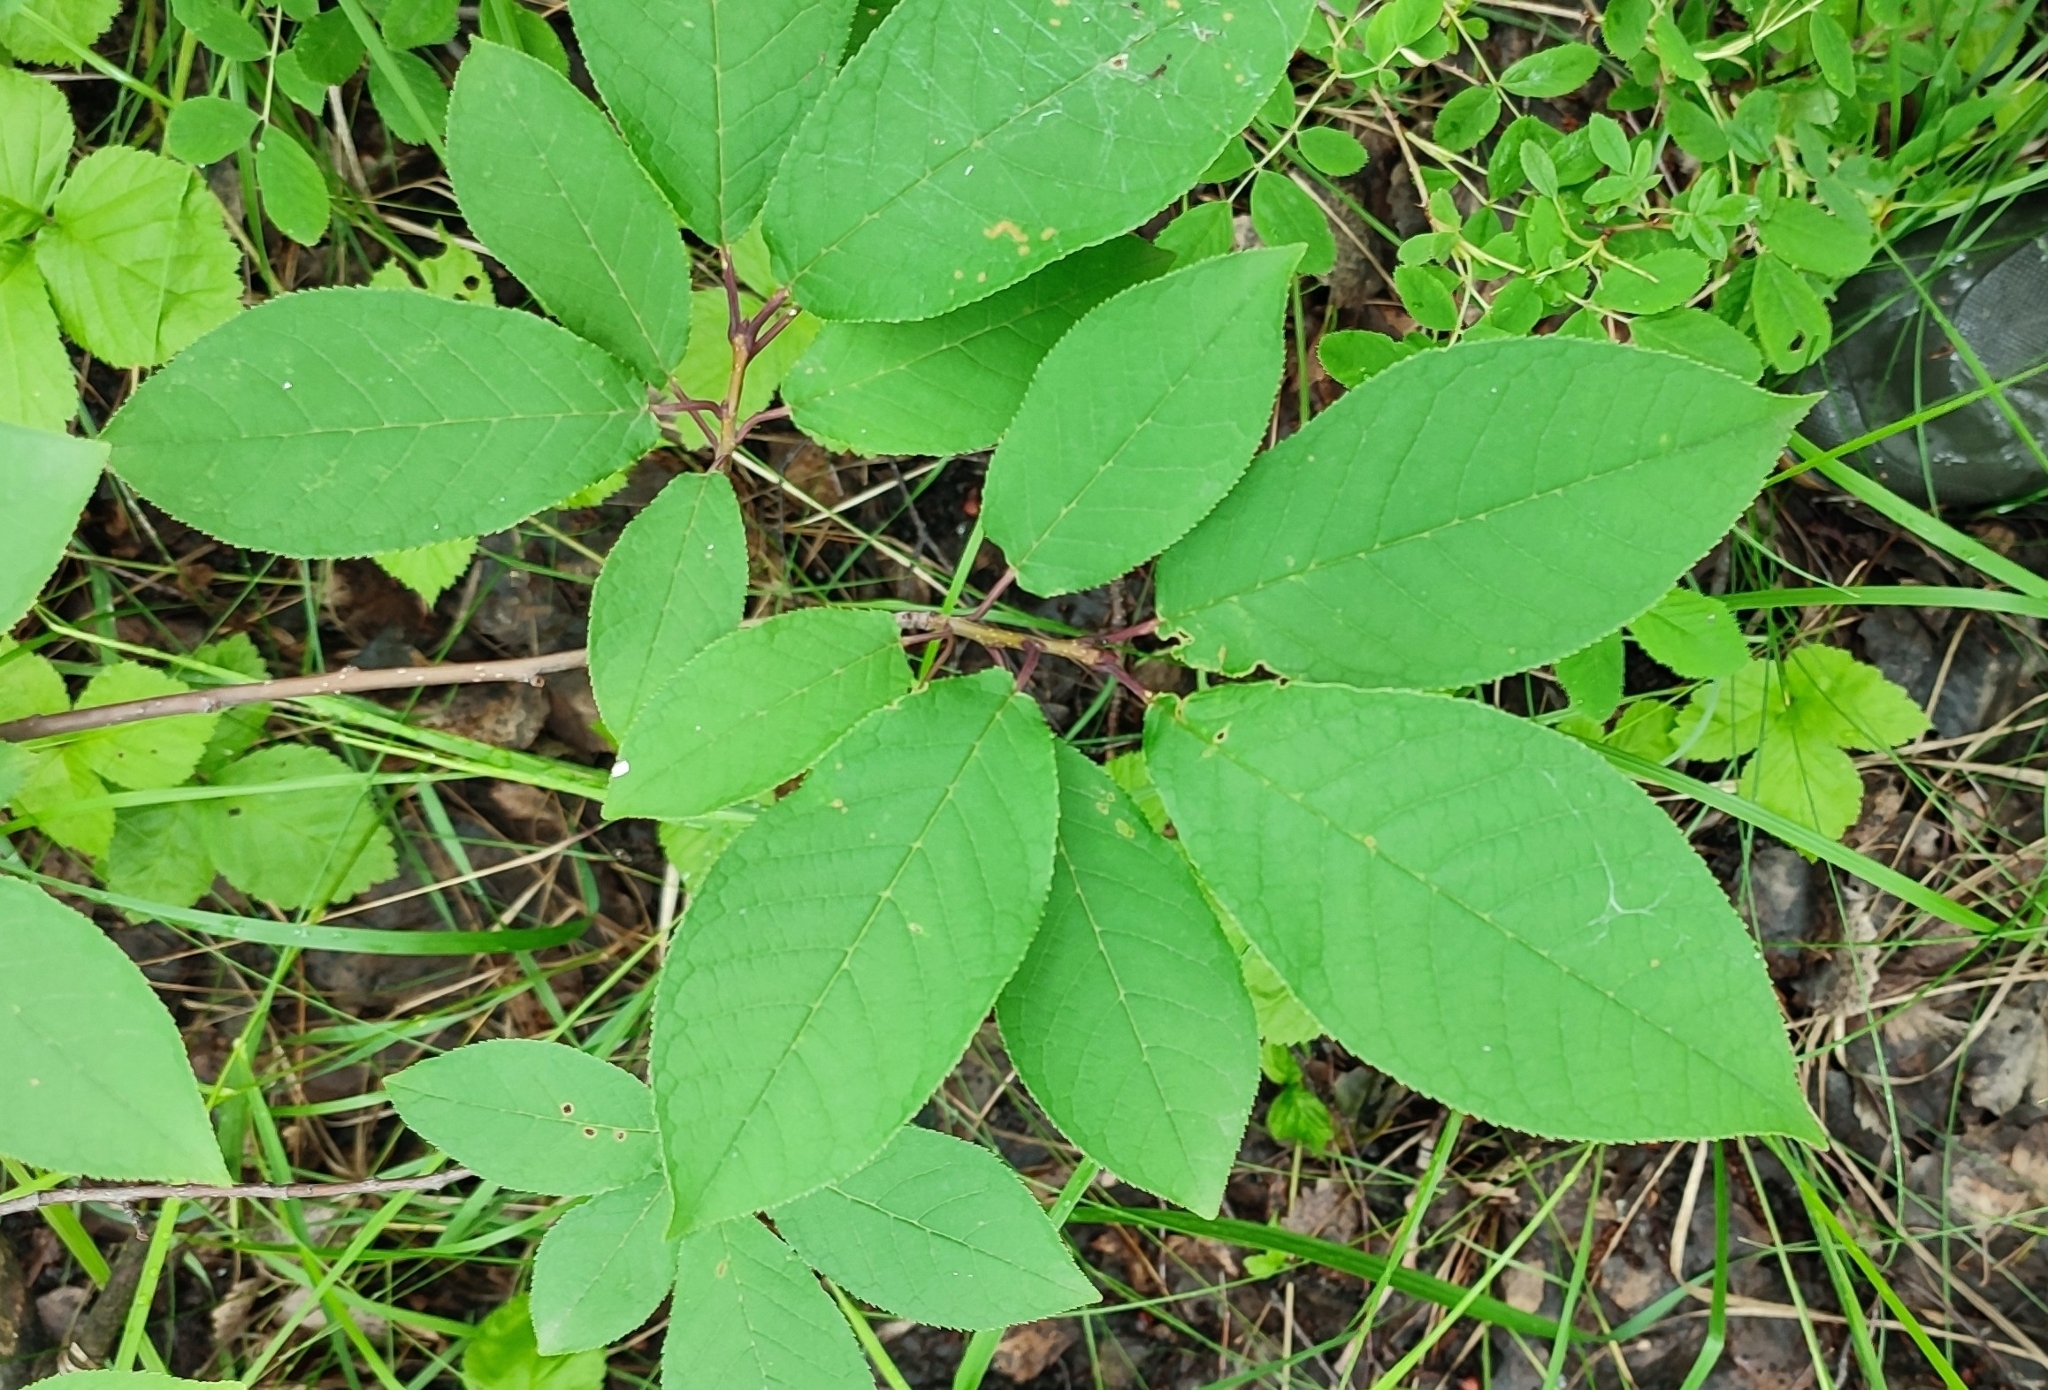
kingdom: Plantae
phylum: Tracheophyta
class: Magnoliopsida
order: Rosales
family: Rosaceae
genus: Prunus
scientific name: Prunus padus
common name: Bird cherry
